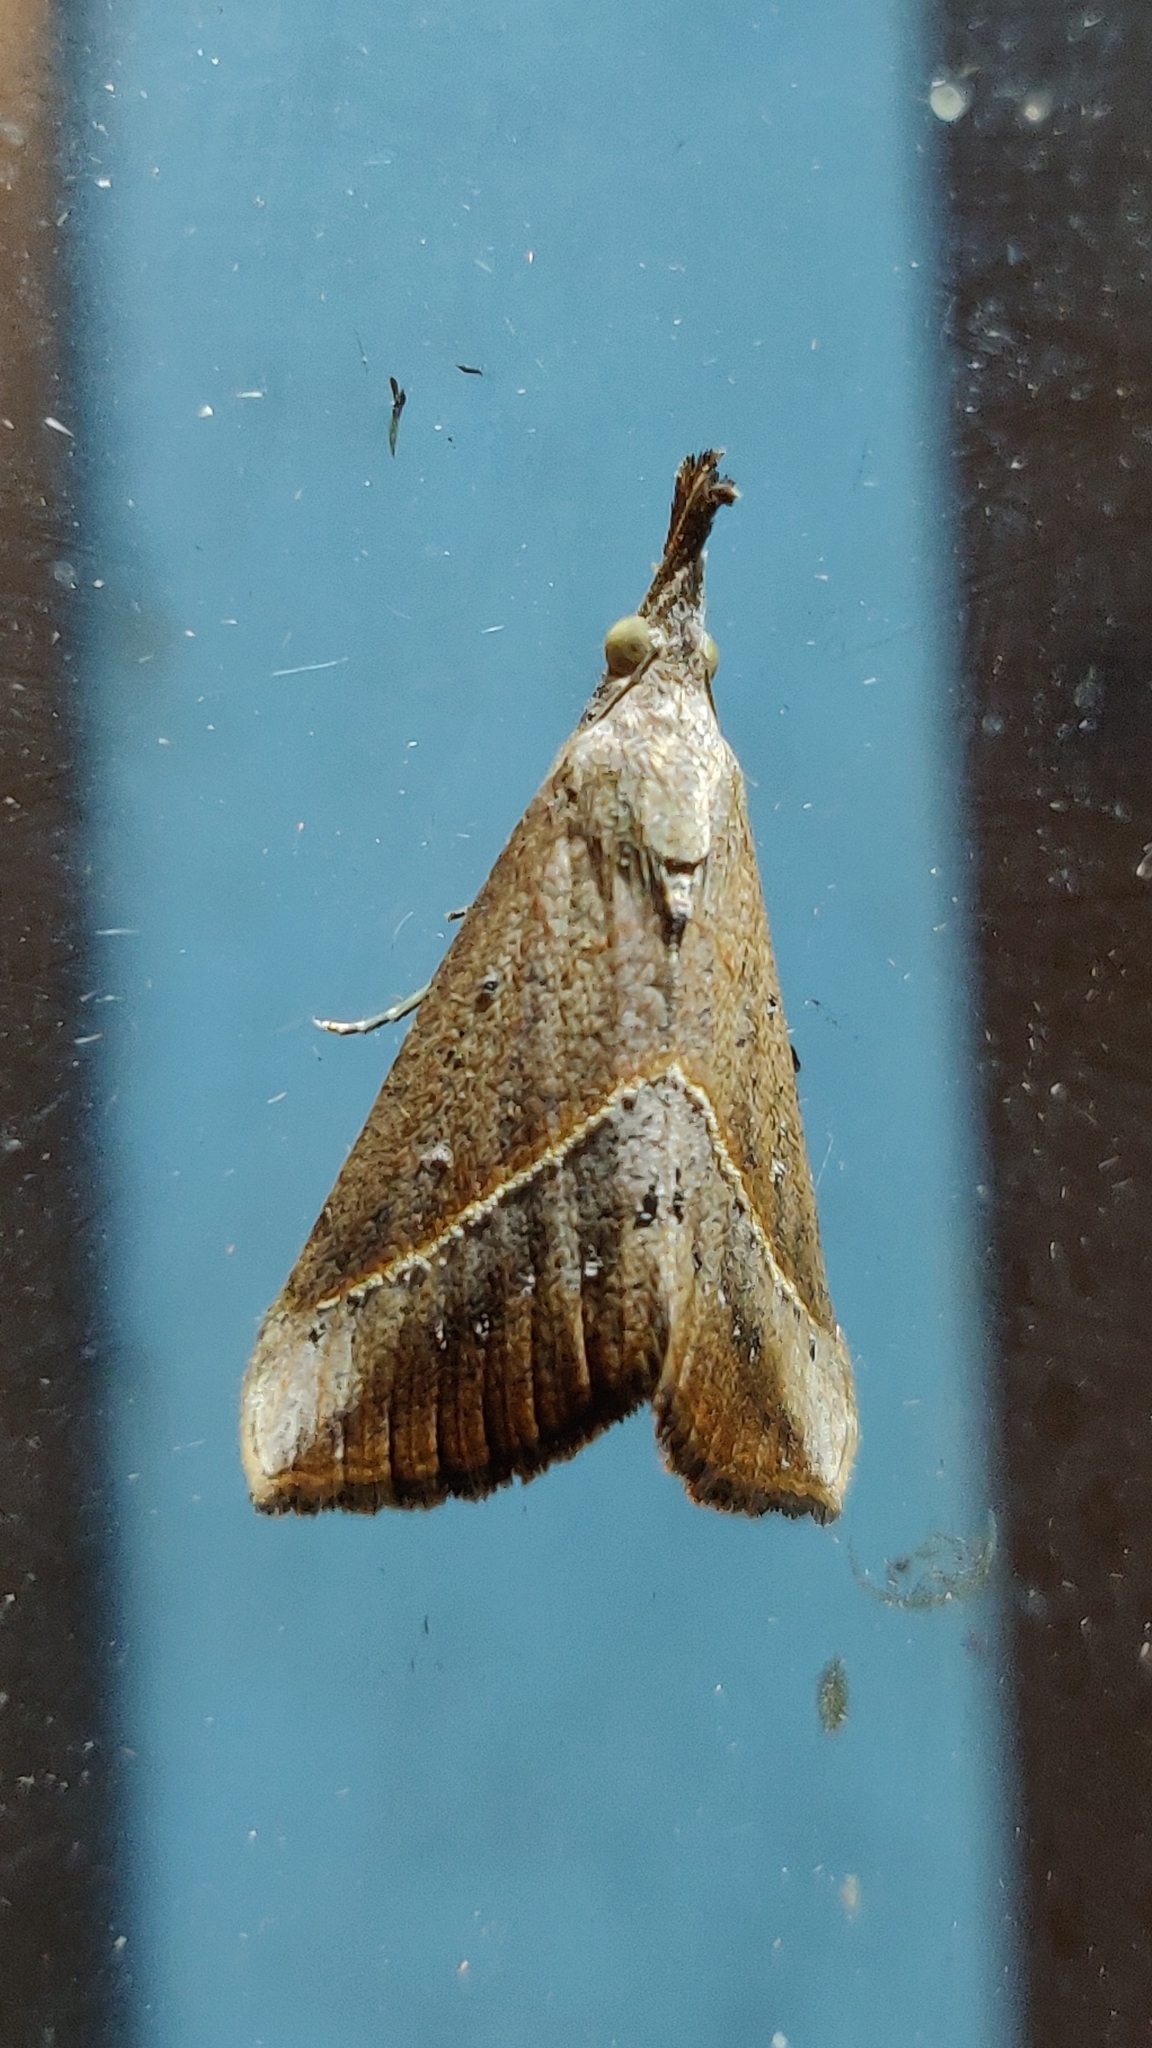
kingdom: Animalia
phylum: Arthropoda
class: Insecta
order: Lepidoptera
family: Erebidae
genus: Hypena
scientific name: Hypena lividalis
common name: Chevron snout
